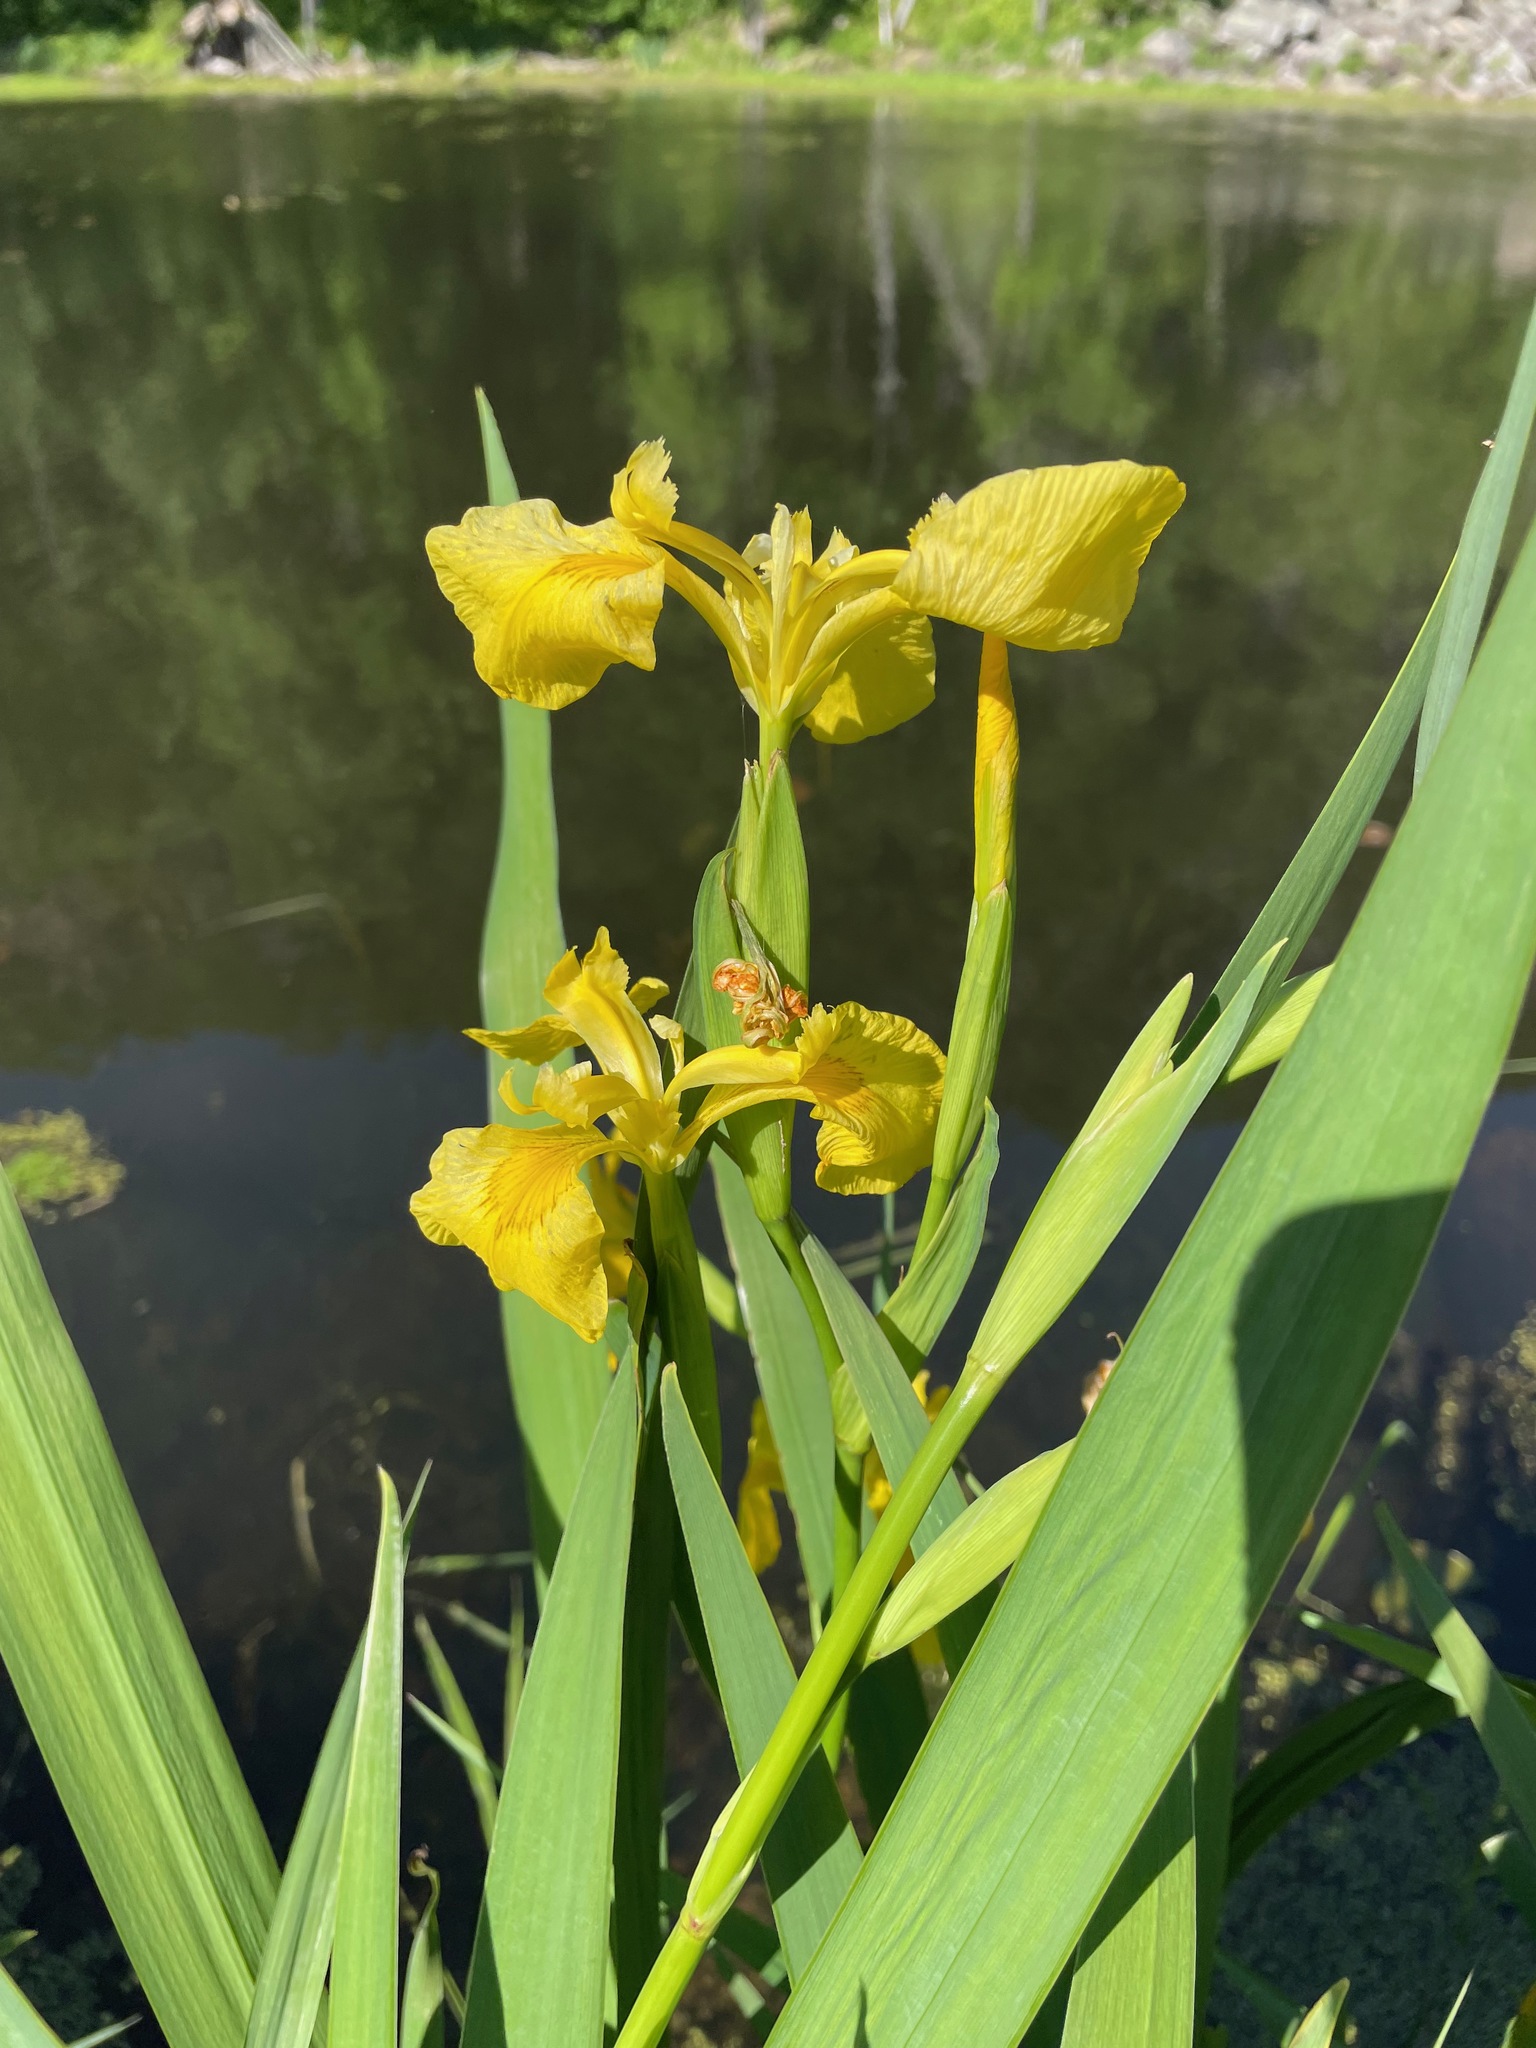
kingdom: Plantae
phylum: Tracheophyta
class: Liliopsida
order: Asparagales
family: Iridaceae
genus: Iris
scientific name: Iris pseudacorus
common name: Yellow flag
